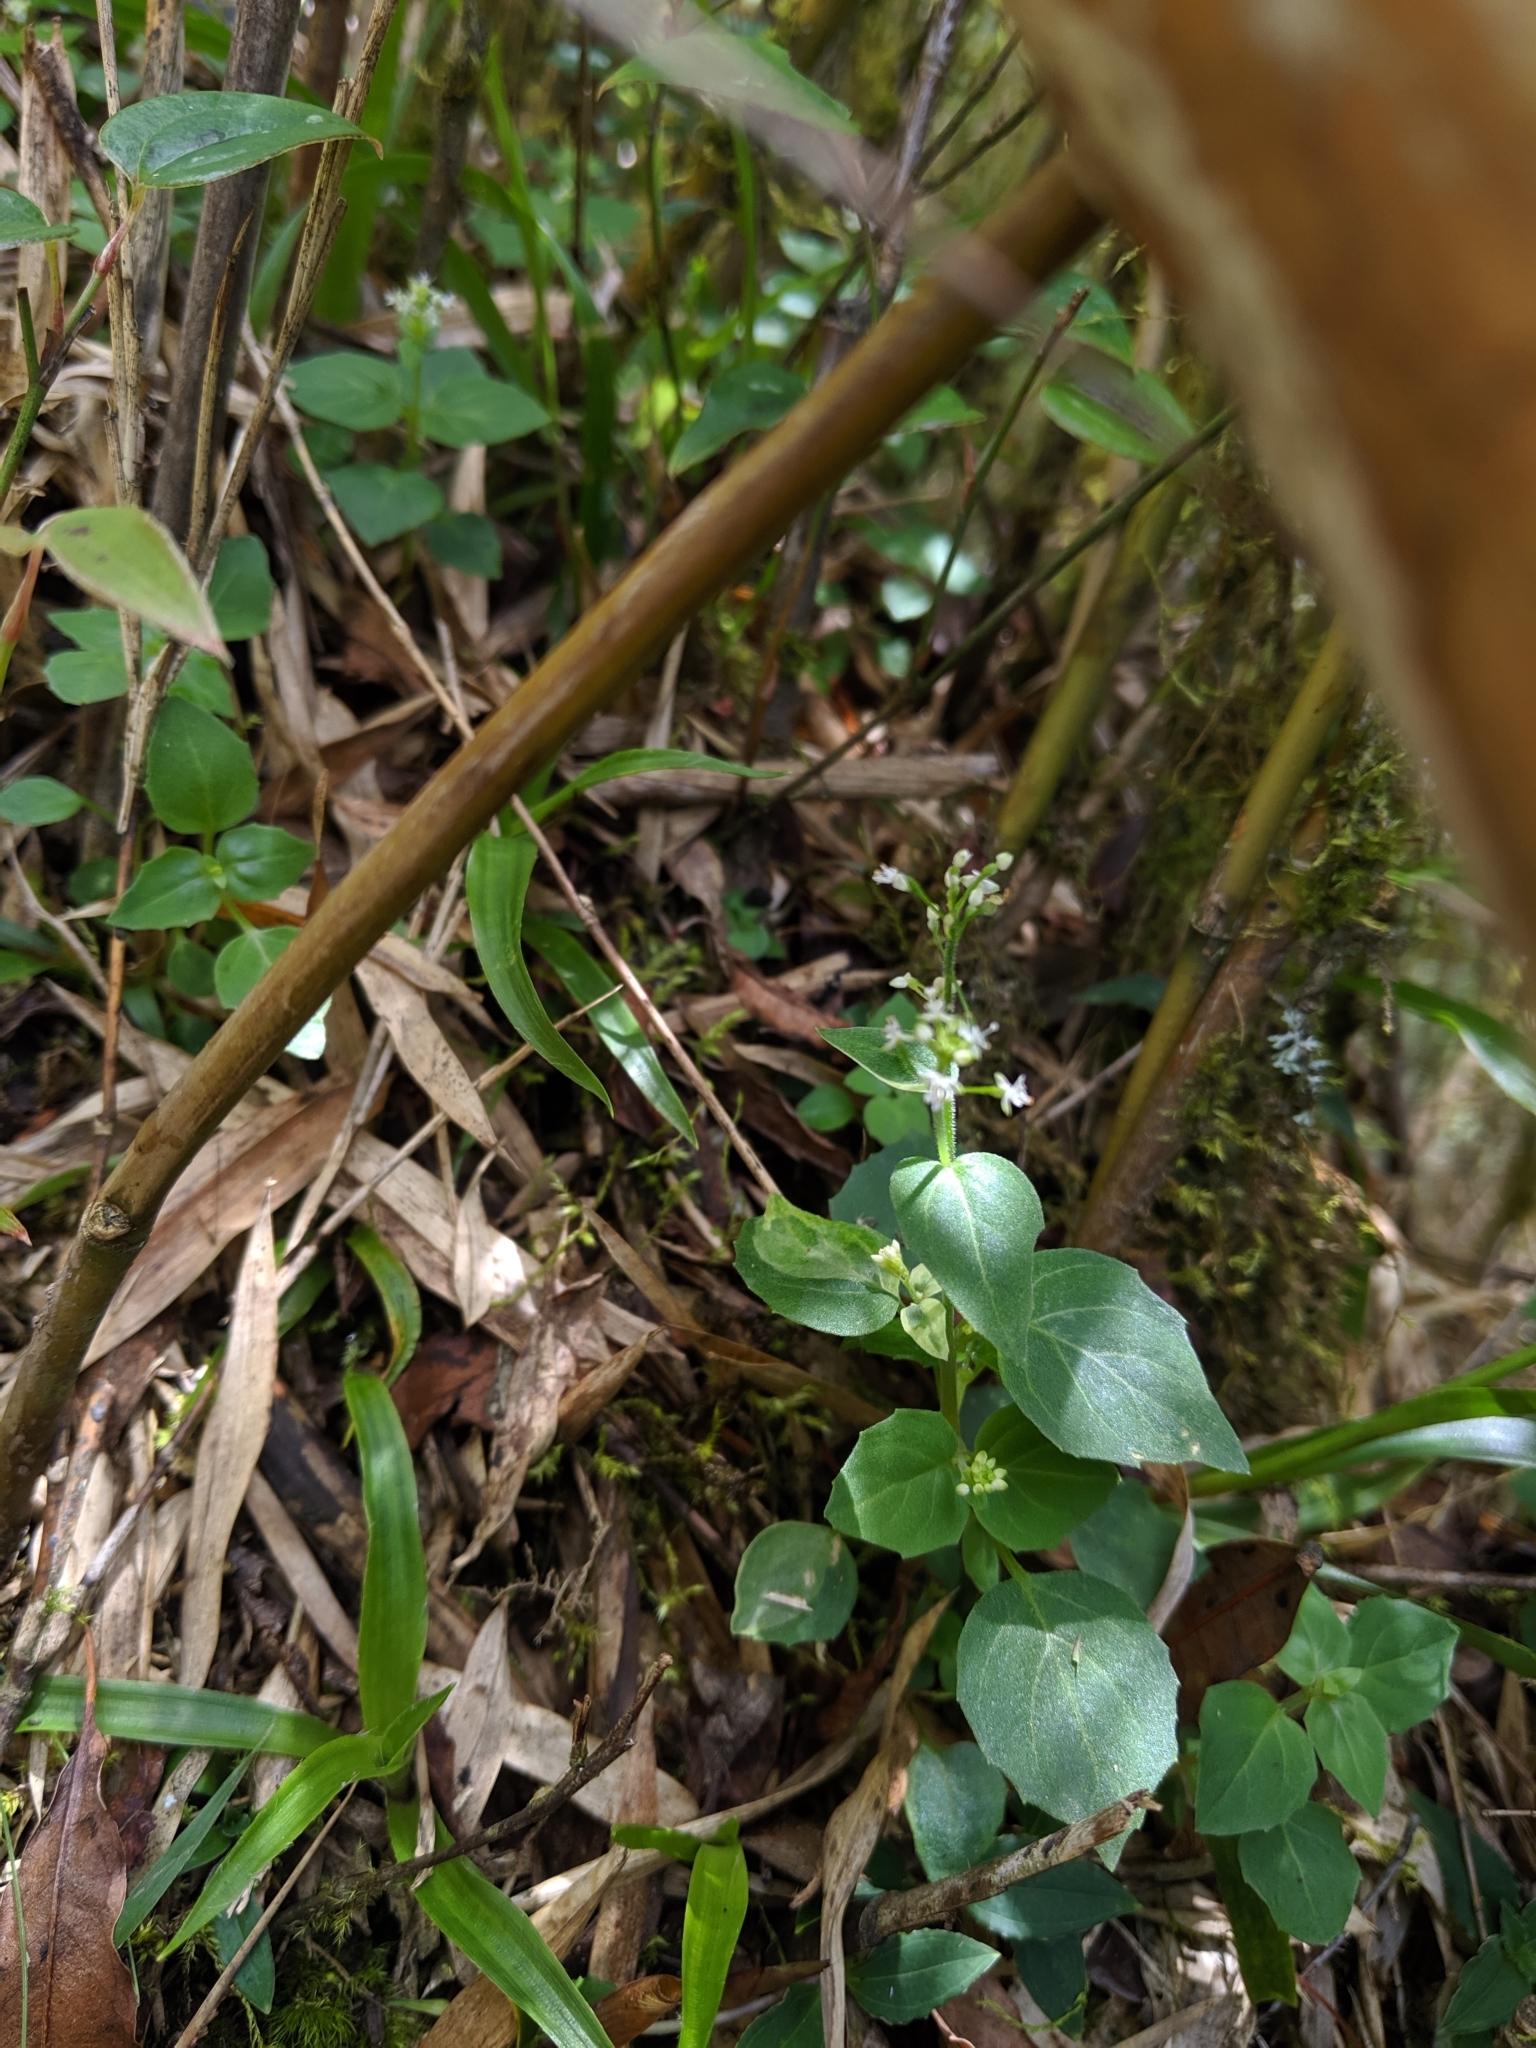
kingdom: Plantae
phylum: Tracheophyta
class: Magnoliopsida
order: Myrtales
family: Onagraceae
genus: Circaea
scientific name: Circaea alpina
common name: Alpine enchanter's-nightshade
